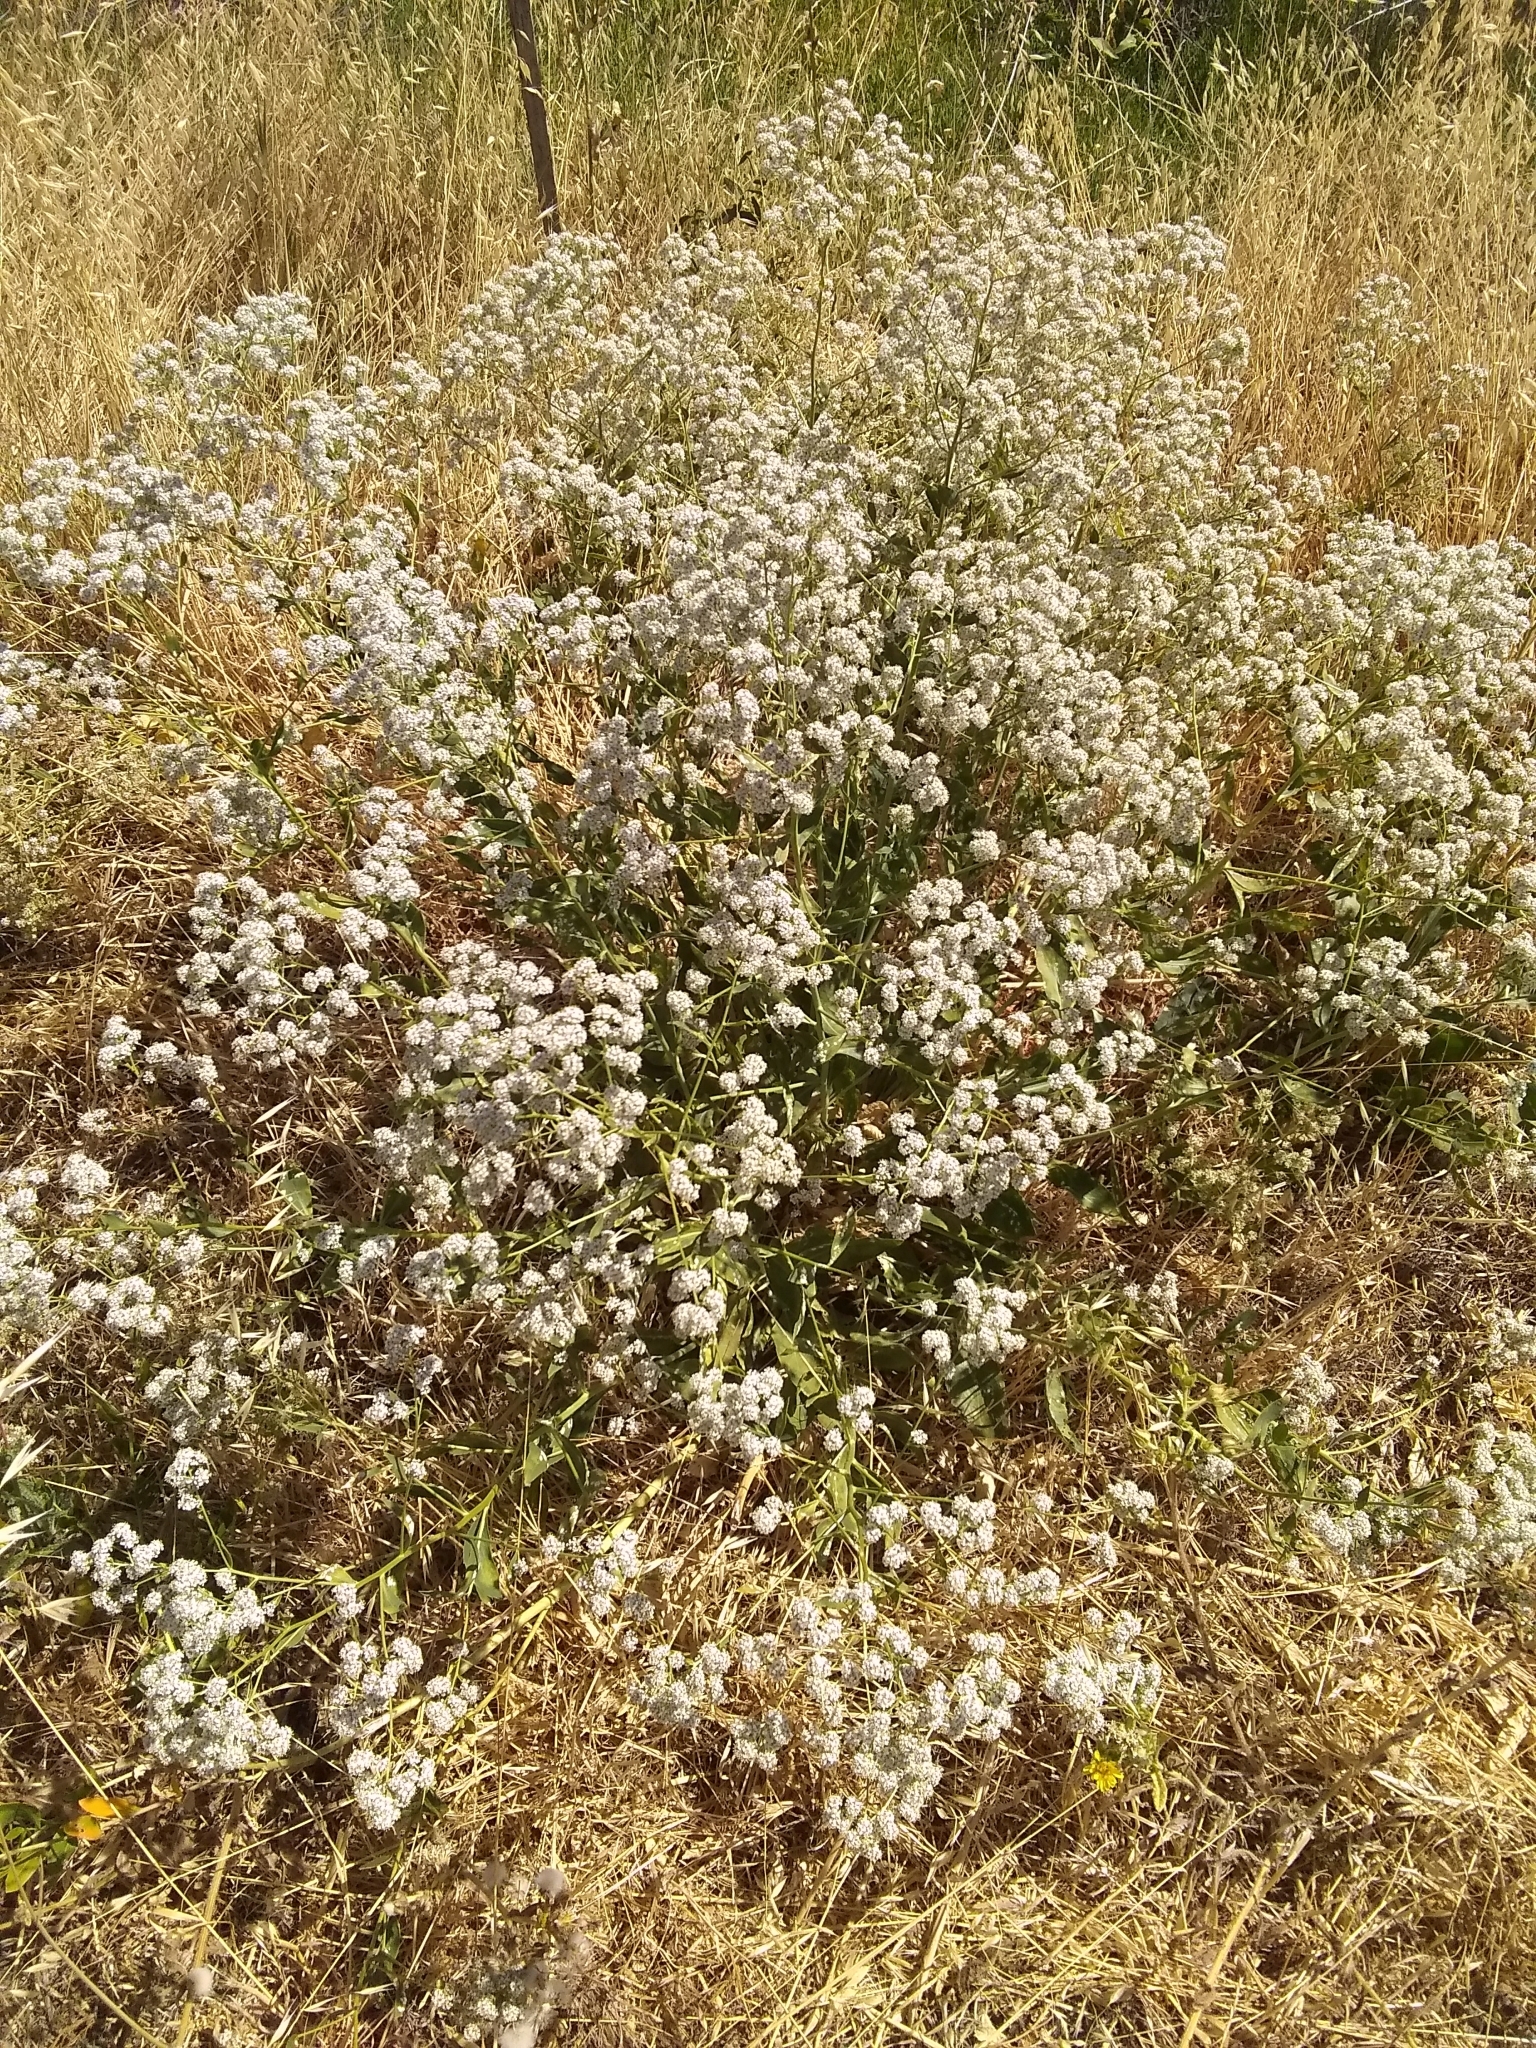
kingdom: Plantae
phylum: Tracheophyta
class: Magnoliopsida
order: Brassicales
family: Brassicaceae
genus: Lepidium
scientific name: Lepidium latifolium
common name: Dittander
